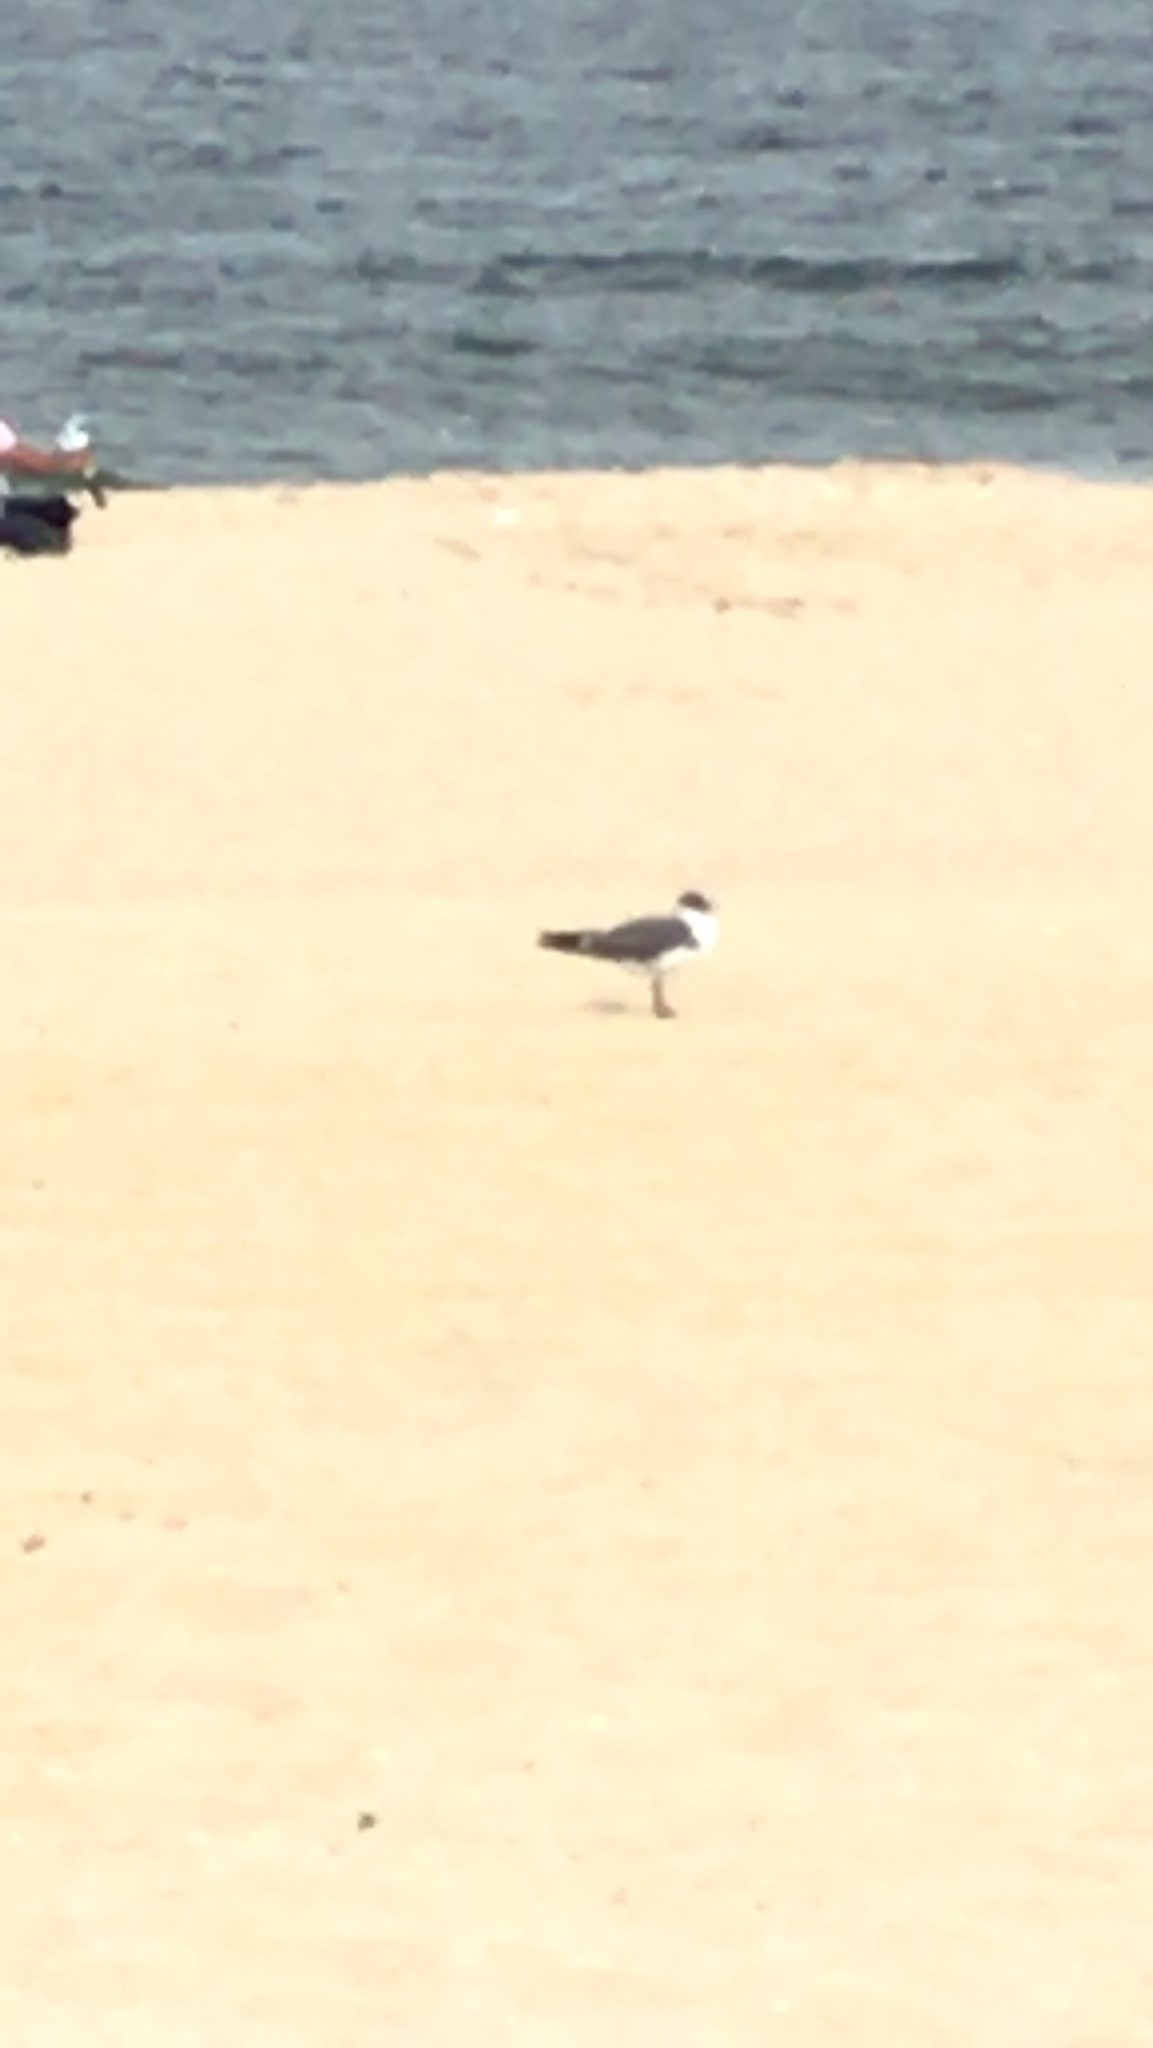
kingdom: Animalia
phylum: Chordata
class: Aves
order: Charadriiformes
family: Laridae
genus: Leucophaeus
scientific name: Leucophaeus atricilla
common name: Laughing gull
